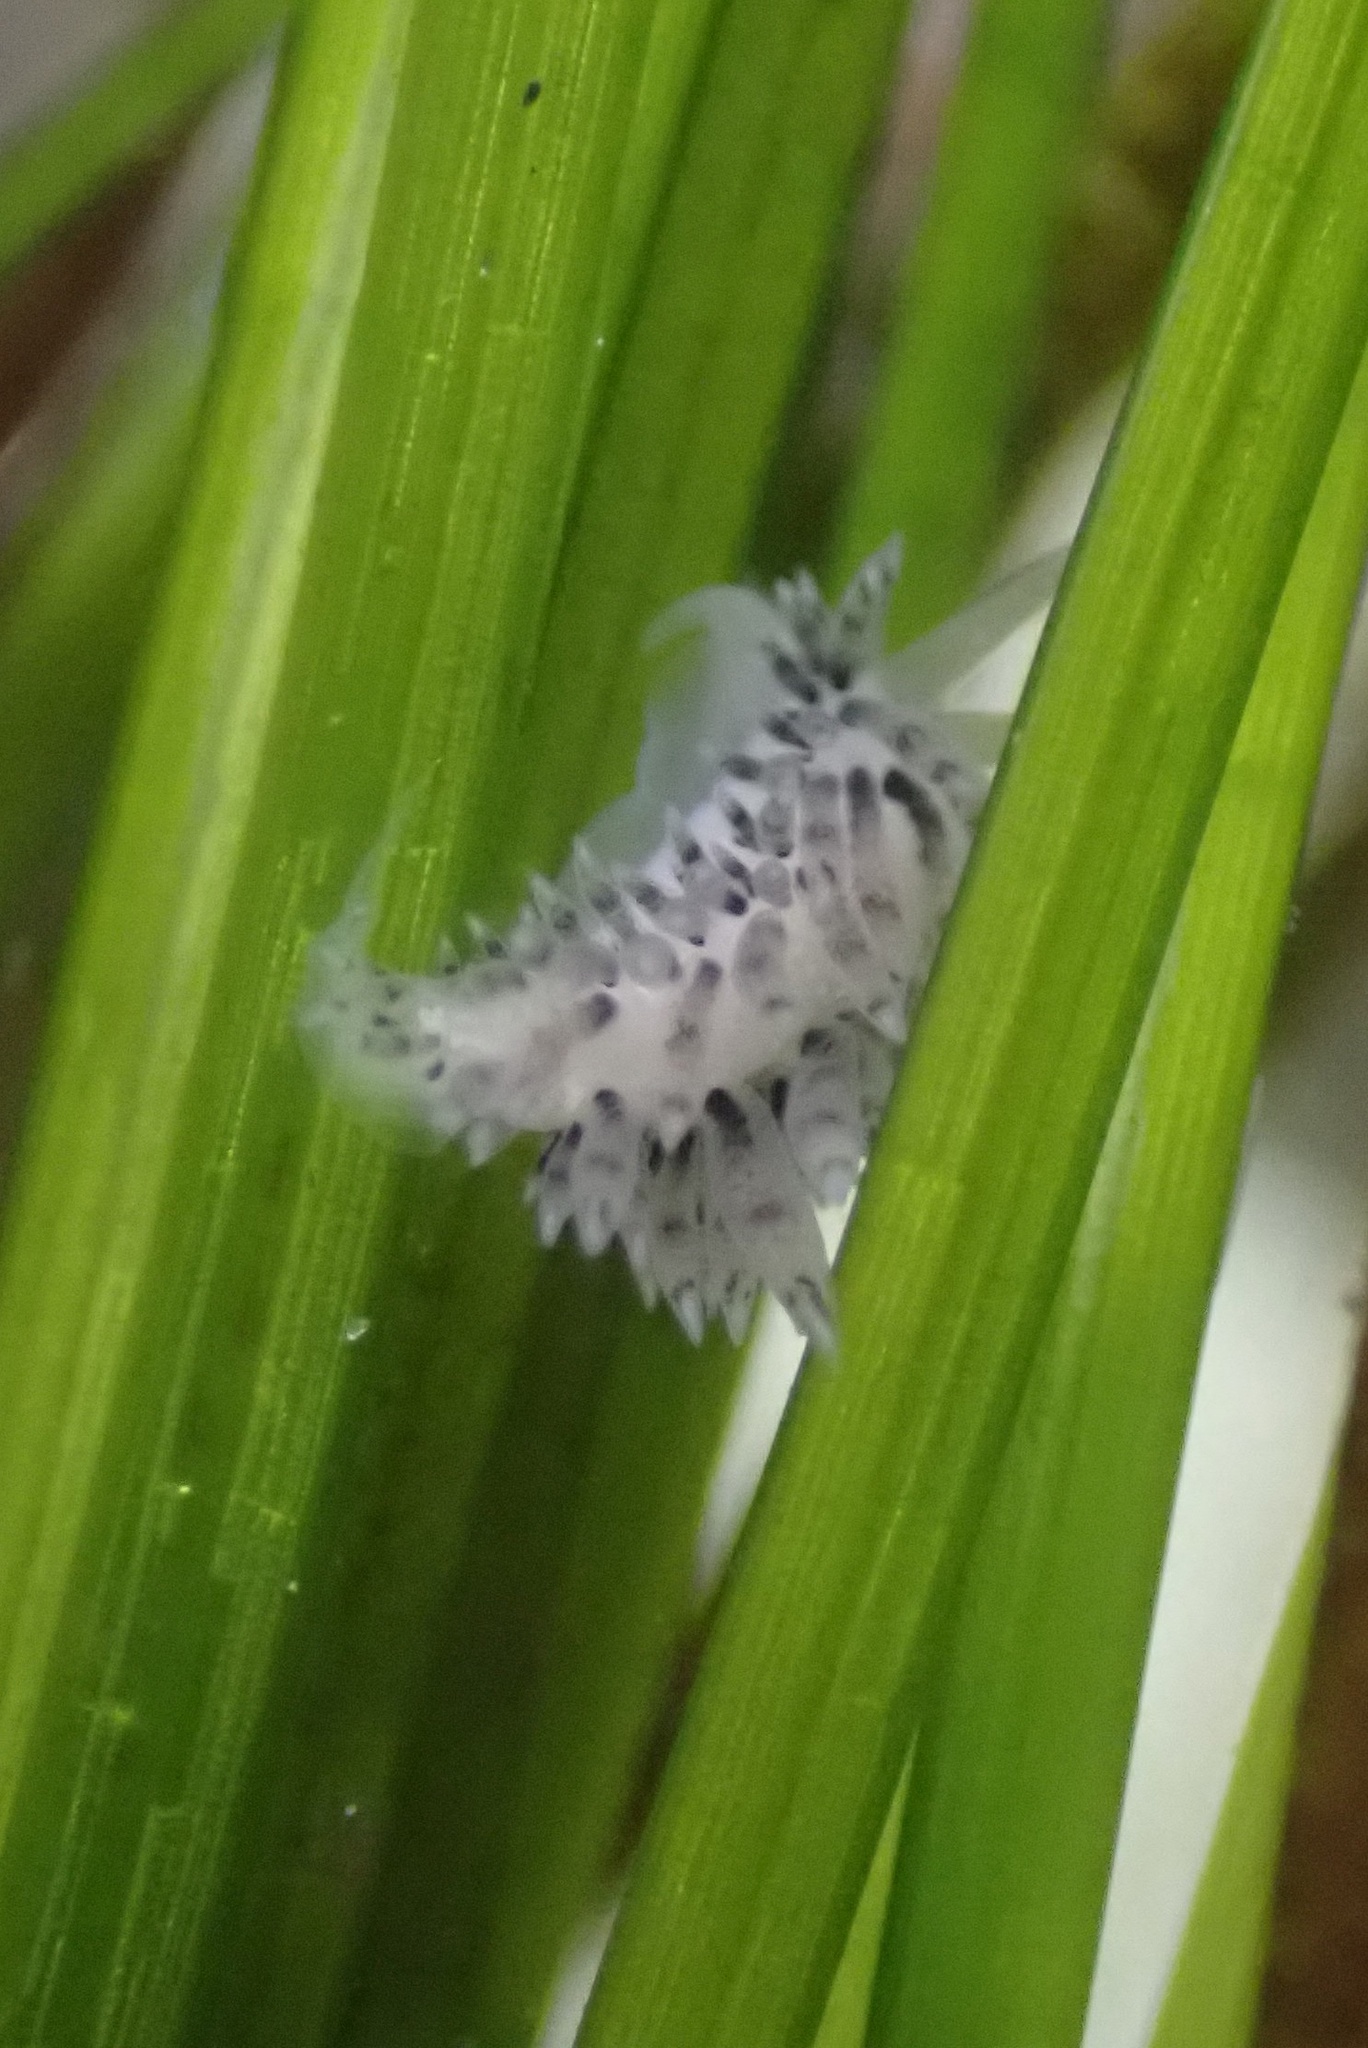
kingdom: Animalia
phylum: Mollusca
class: Gastropoda
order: Nudibranchia
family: Facelinidae
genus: Emarcusia
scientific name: Emarcusia morroensis
